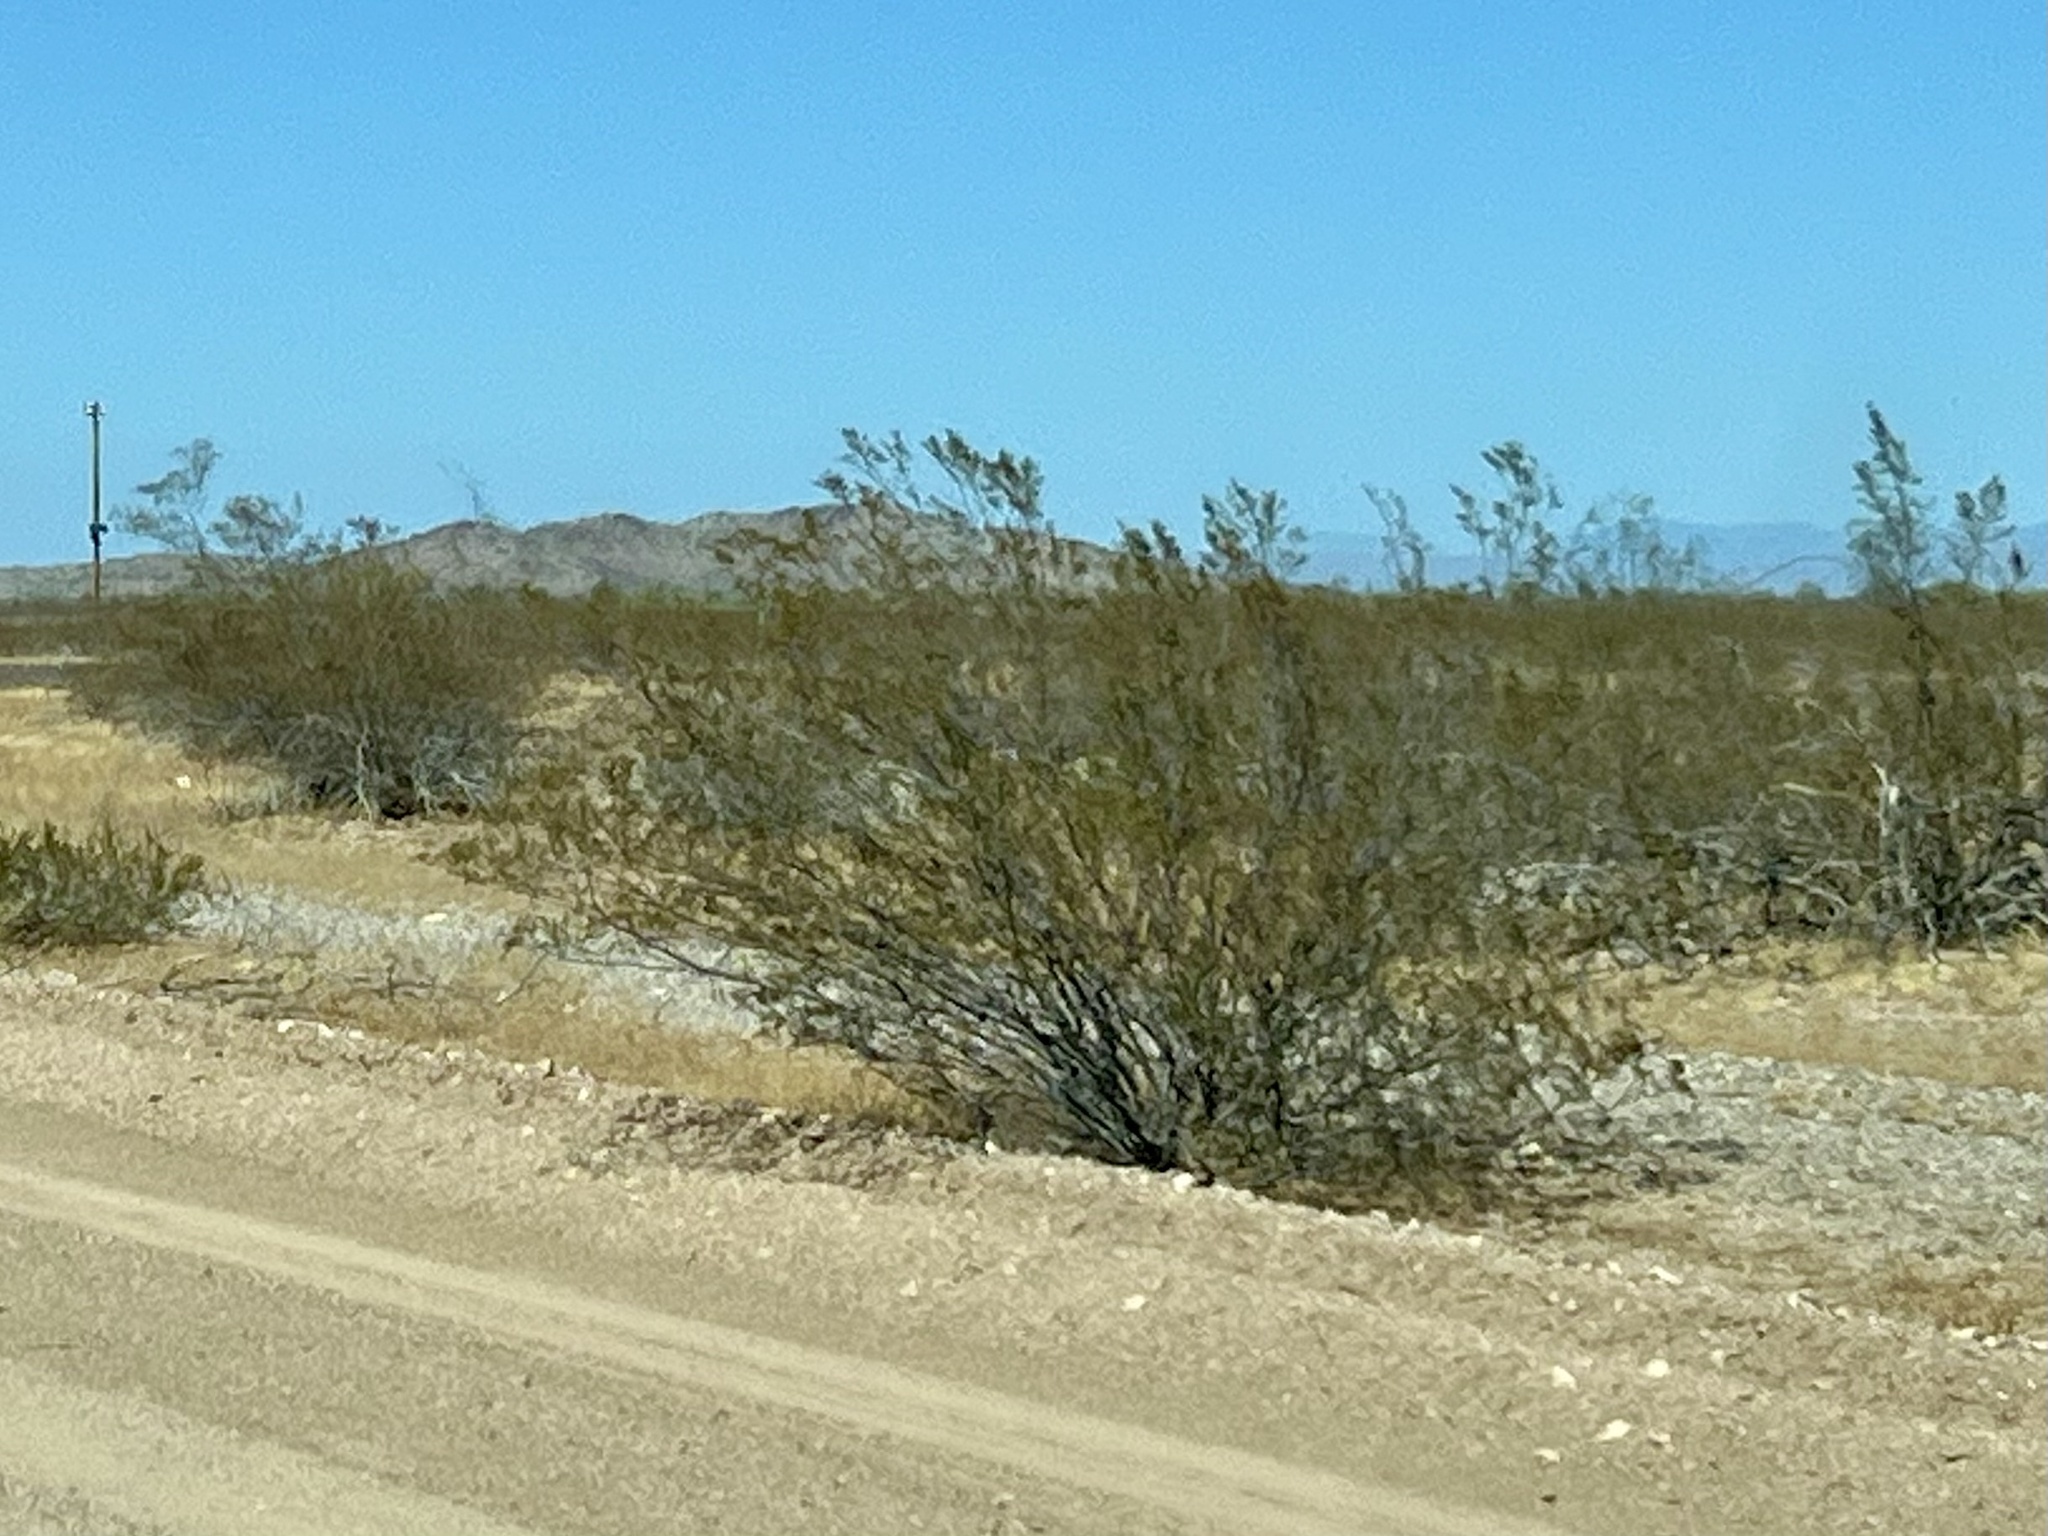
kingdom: Plantae
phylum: Tracheophyta
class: Magnoliopsida
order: Zygophyllales
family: Zygophyllaceae
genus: Larrea
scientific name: Larrea tridentata
